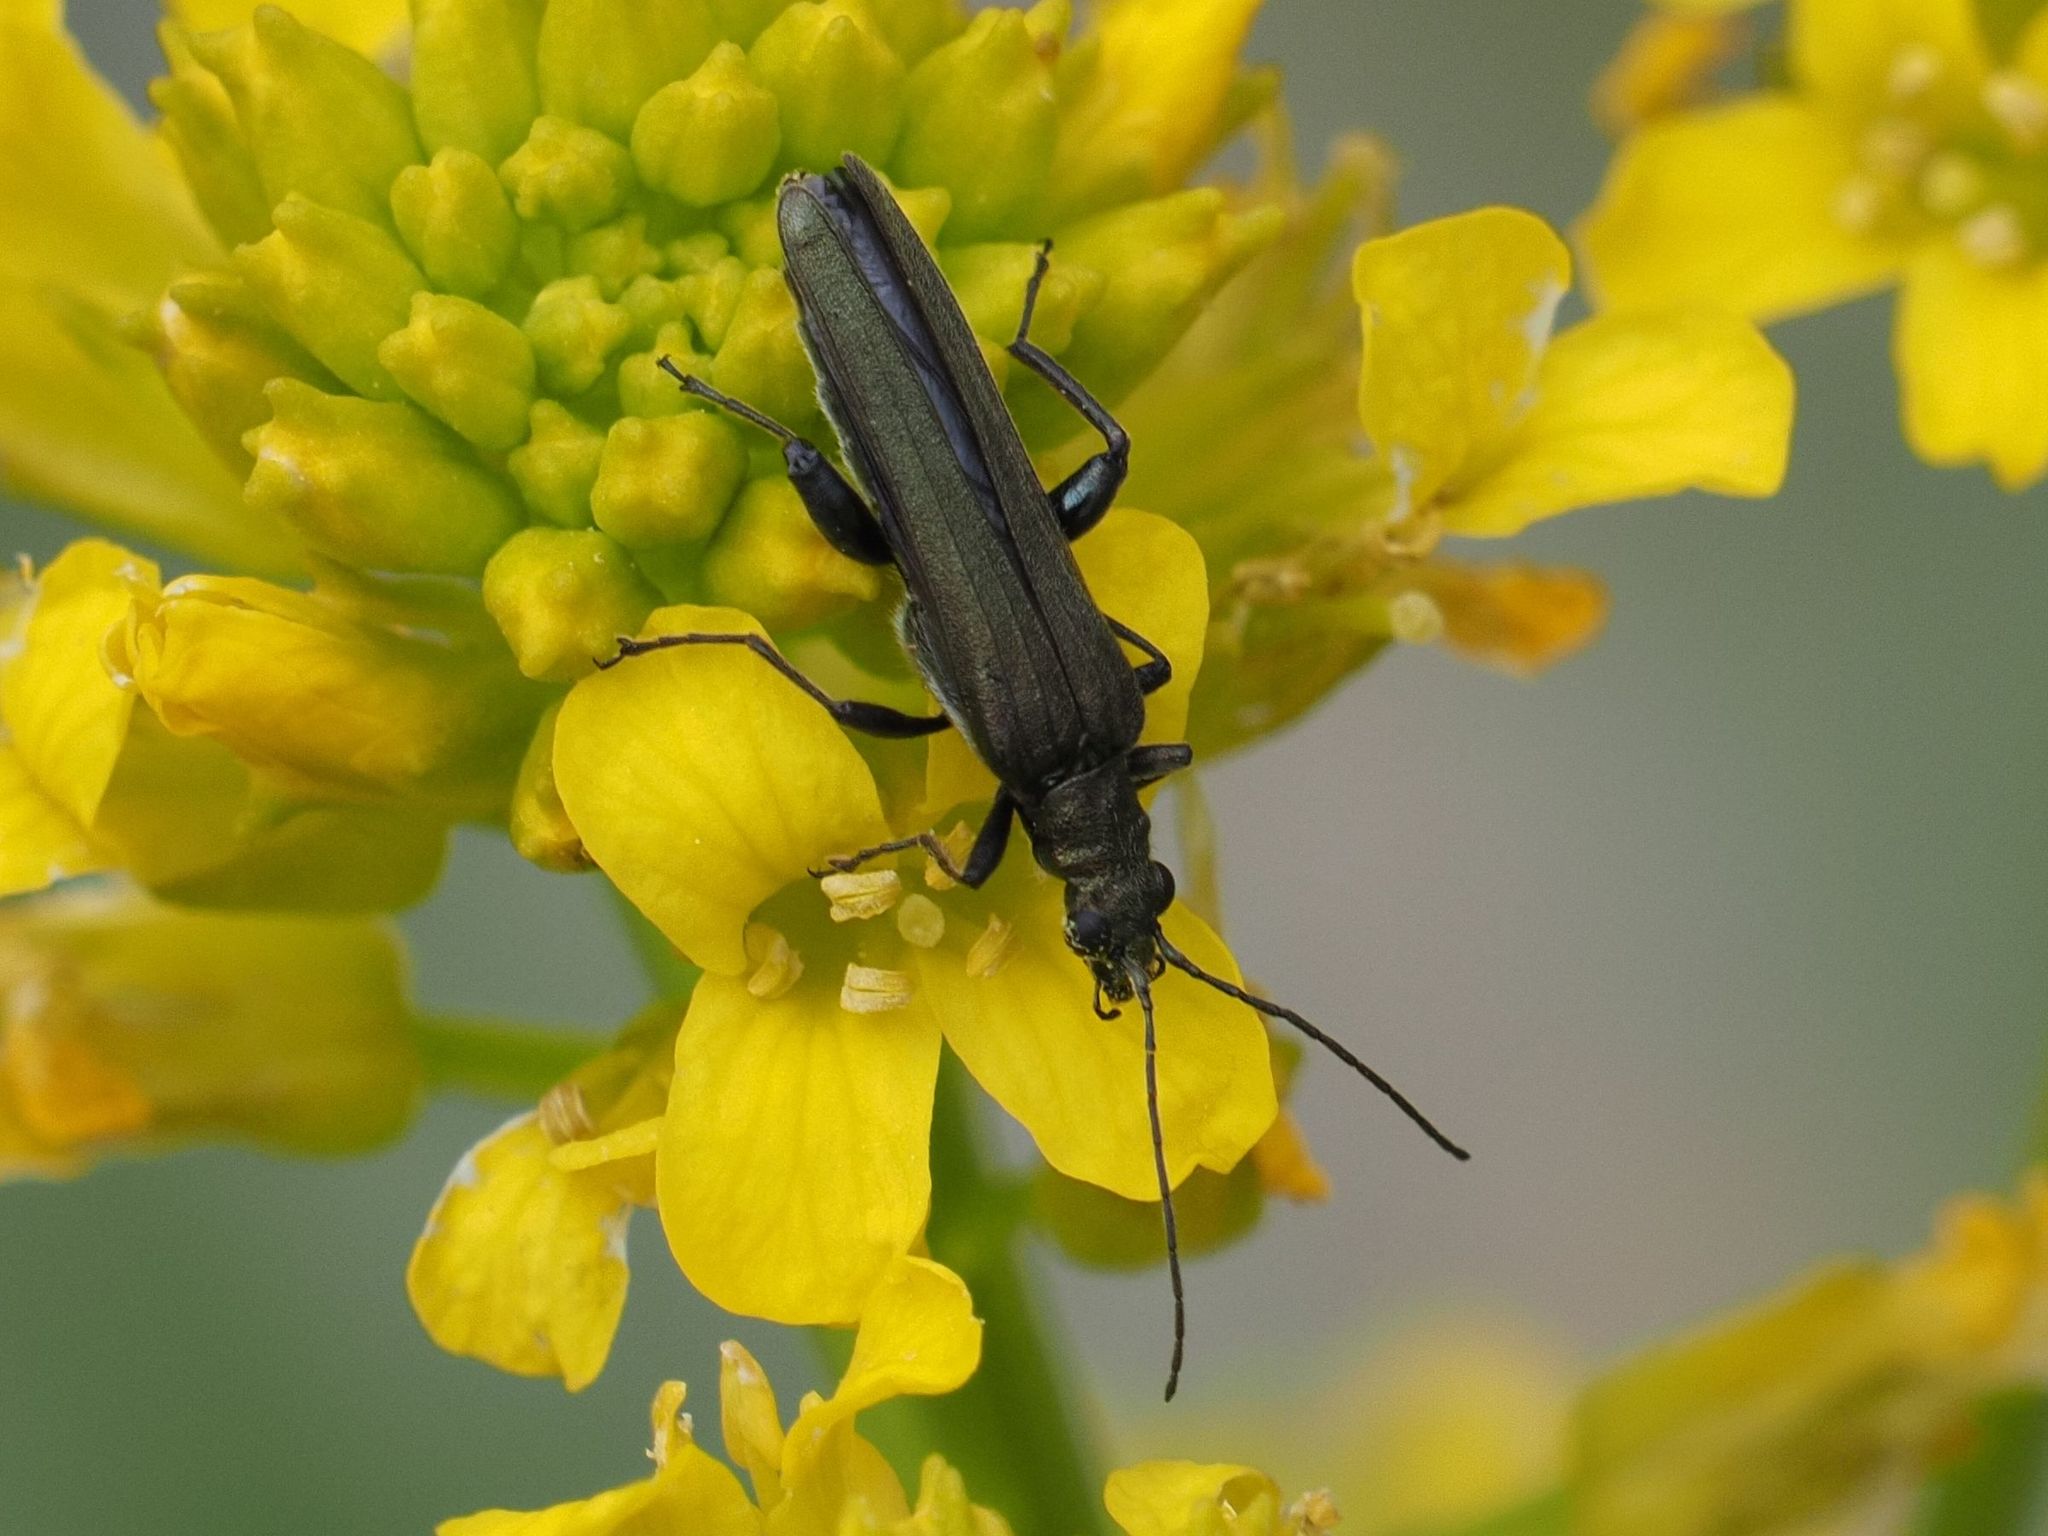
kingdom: Animalia
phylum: Arthropoda
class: Insecta
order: Coleoptera
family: Oedemeridae
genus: Oedemera
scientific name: Oedemera virescens
